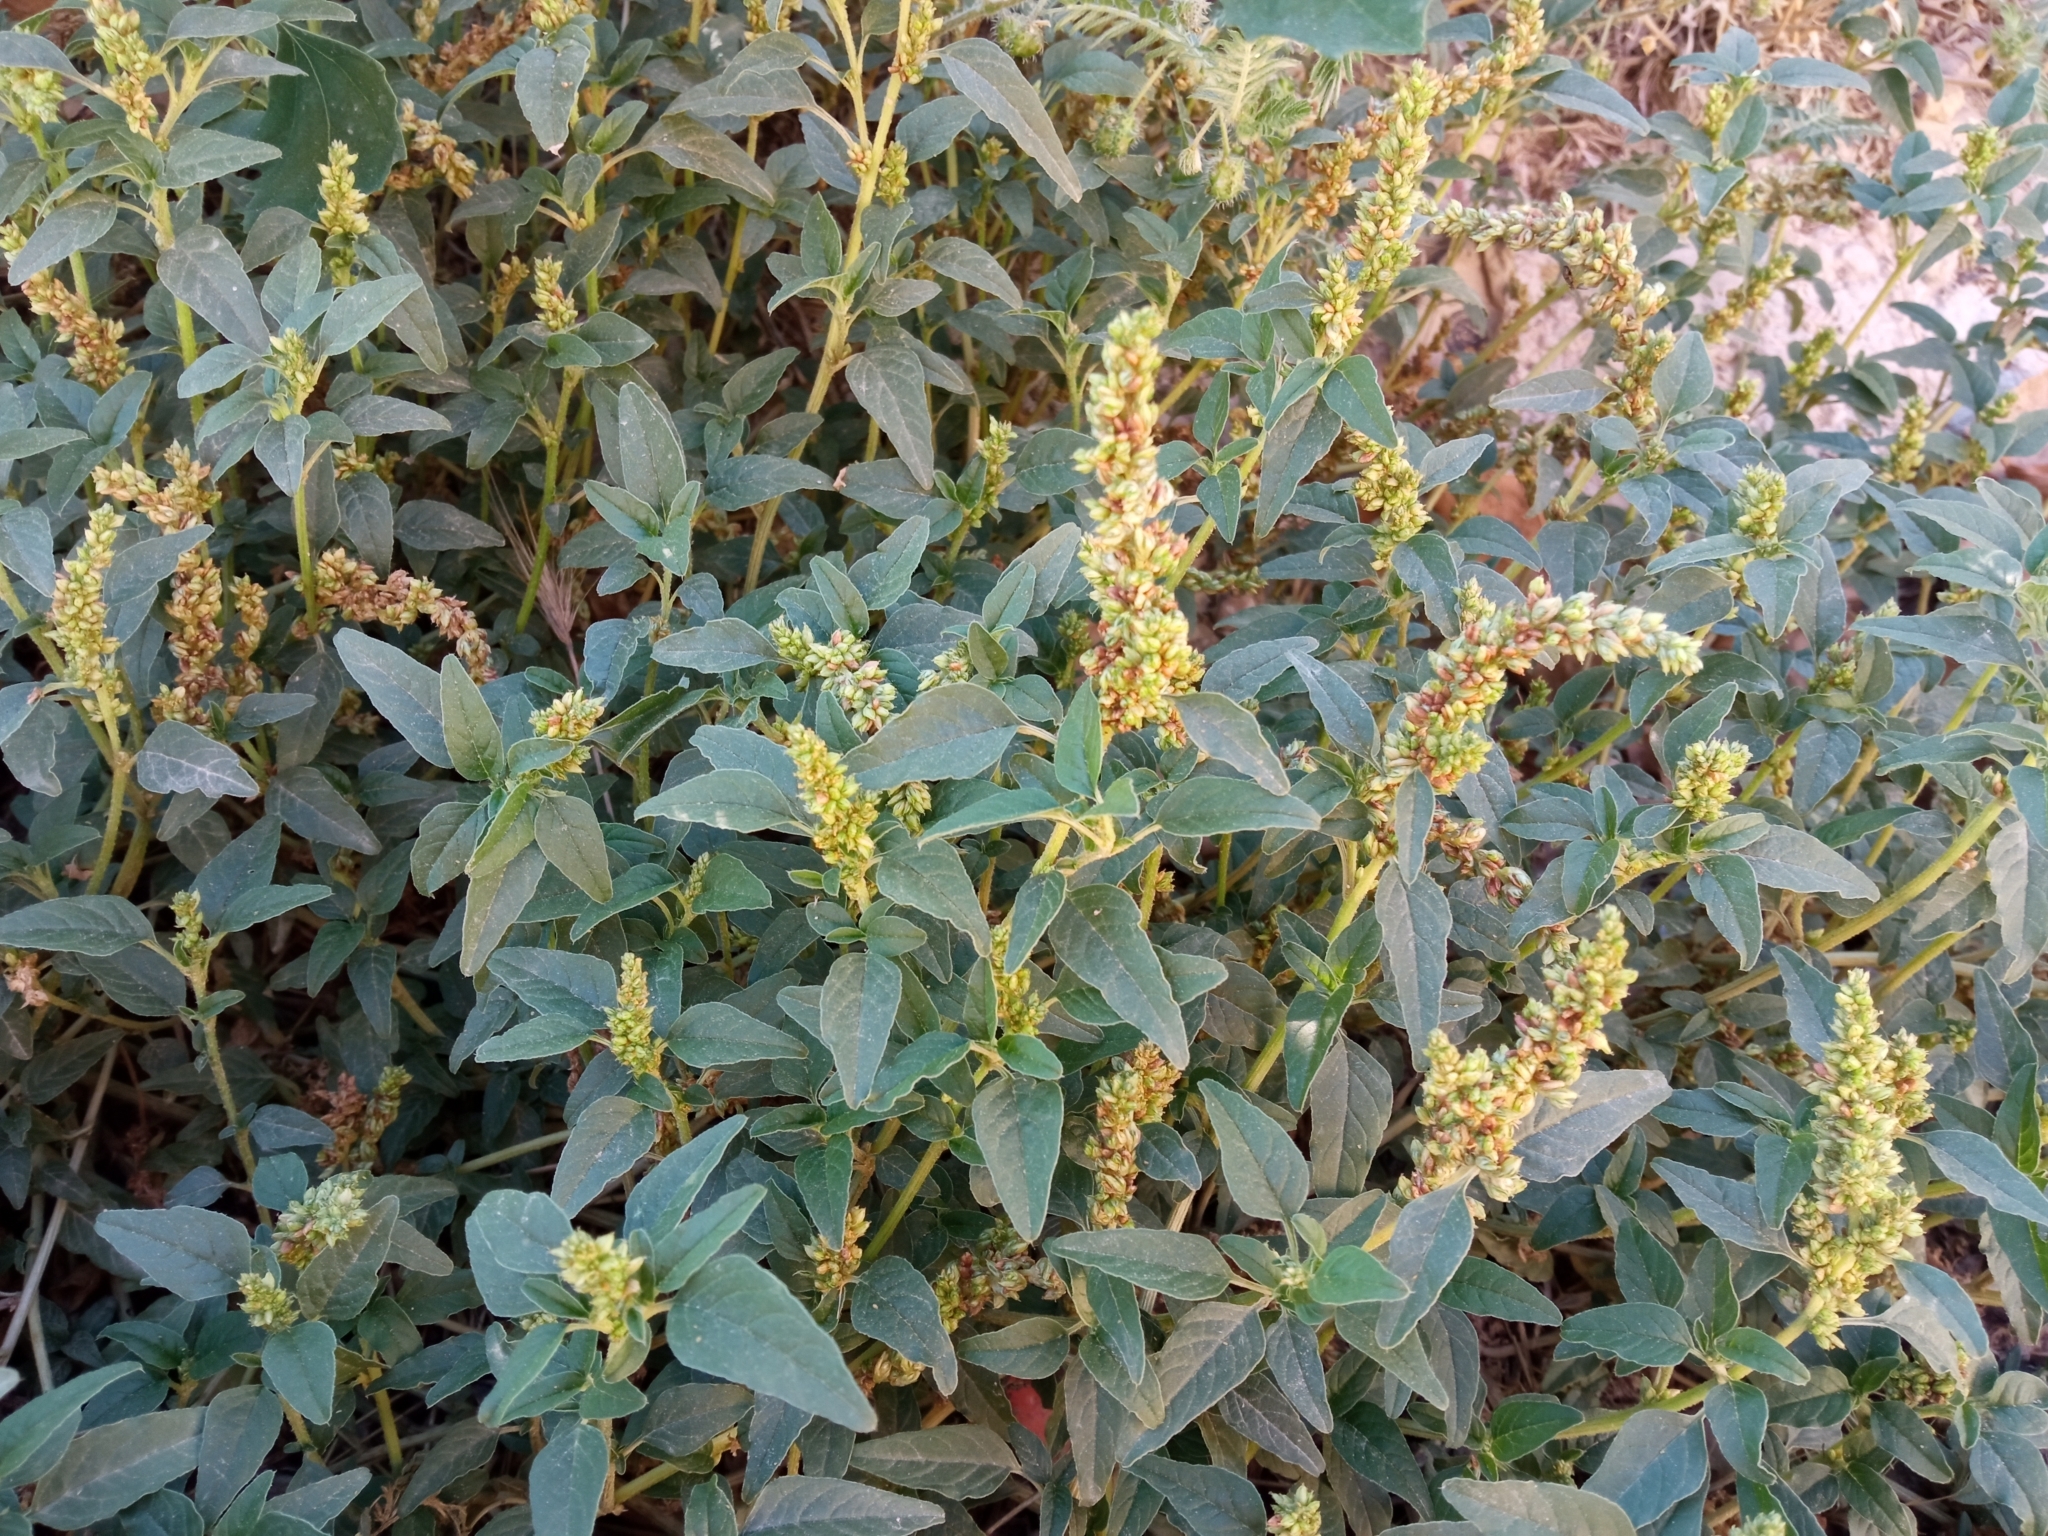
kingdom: Plantae
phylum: Tracheophyta
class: Magnoliopsida
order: Caryophyllales
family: Amaranthaceae
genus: Amaranthus
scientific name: Amaranthus deflexus
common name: Perennial pigweed
